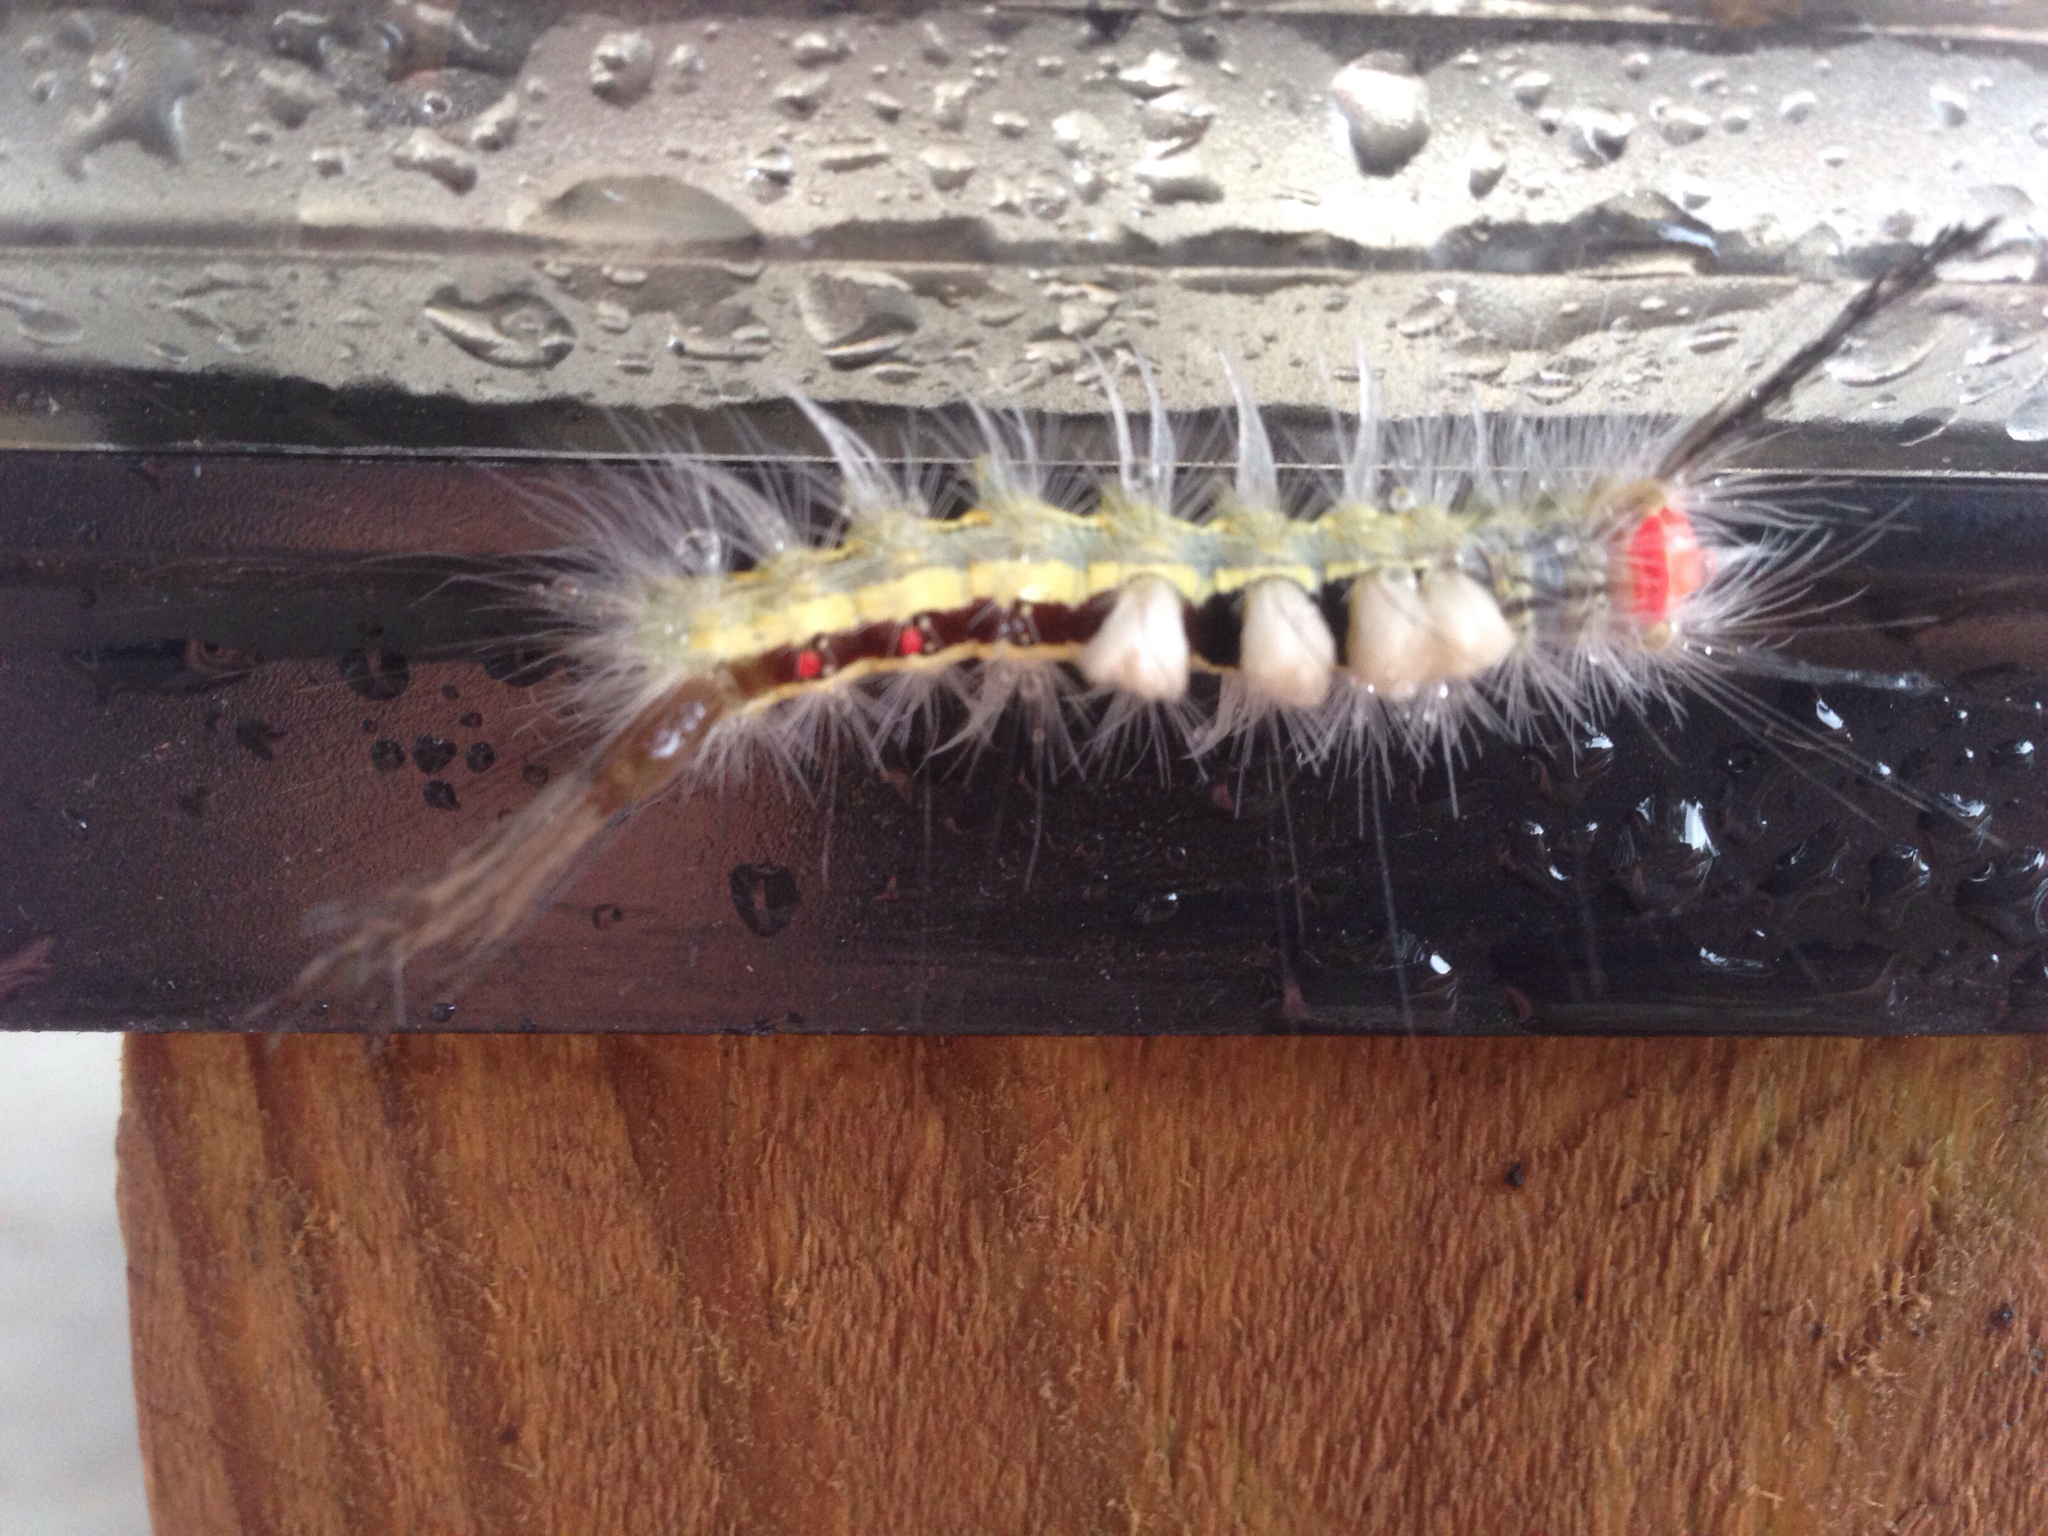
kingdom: Animalia
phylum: Arthropoda
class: Insecta
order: Lepidoptera
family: Erebidae
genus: Orgyia
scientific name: Orgyia leucostigma
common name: White-marked tussock moth
